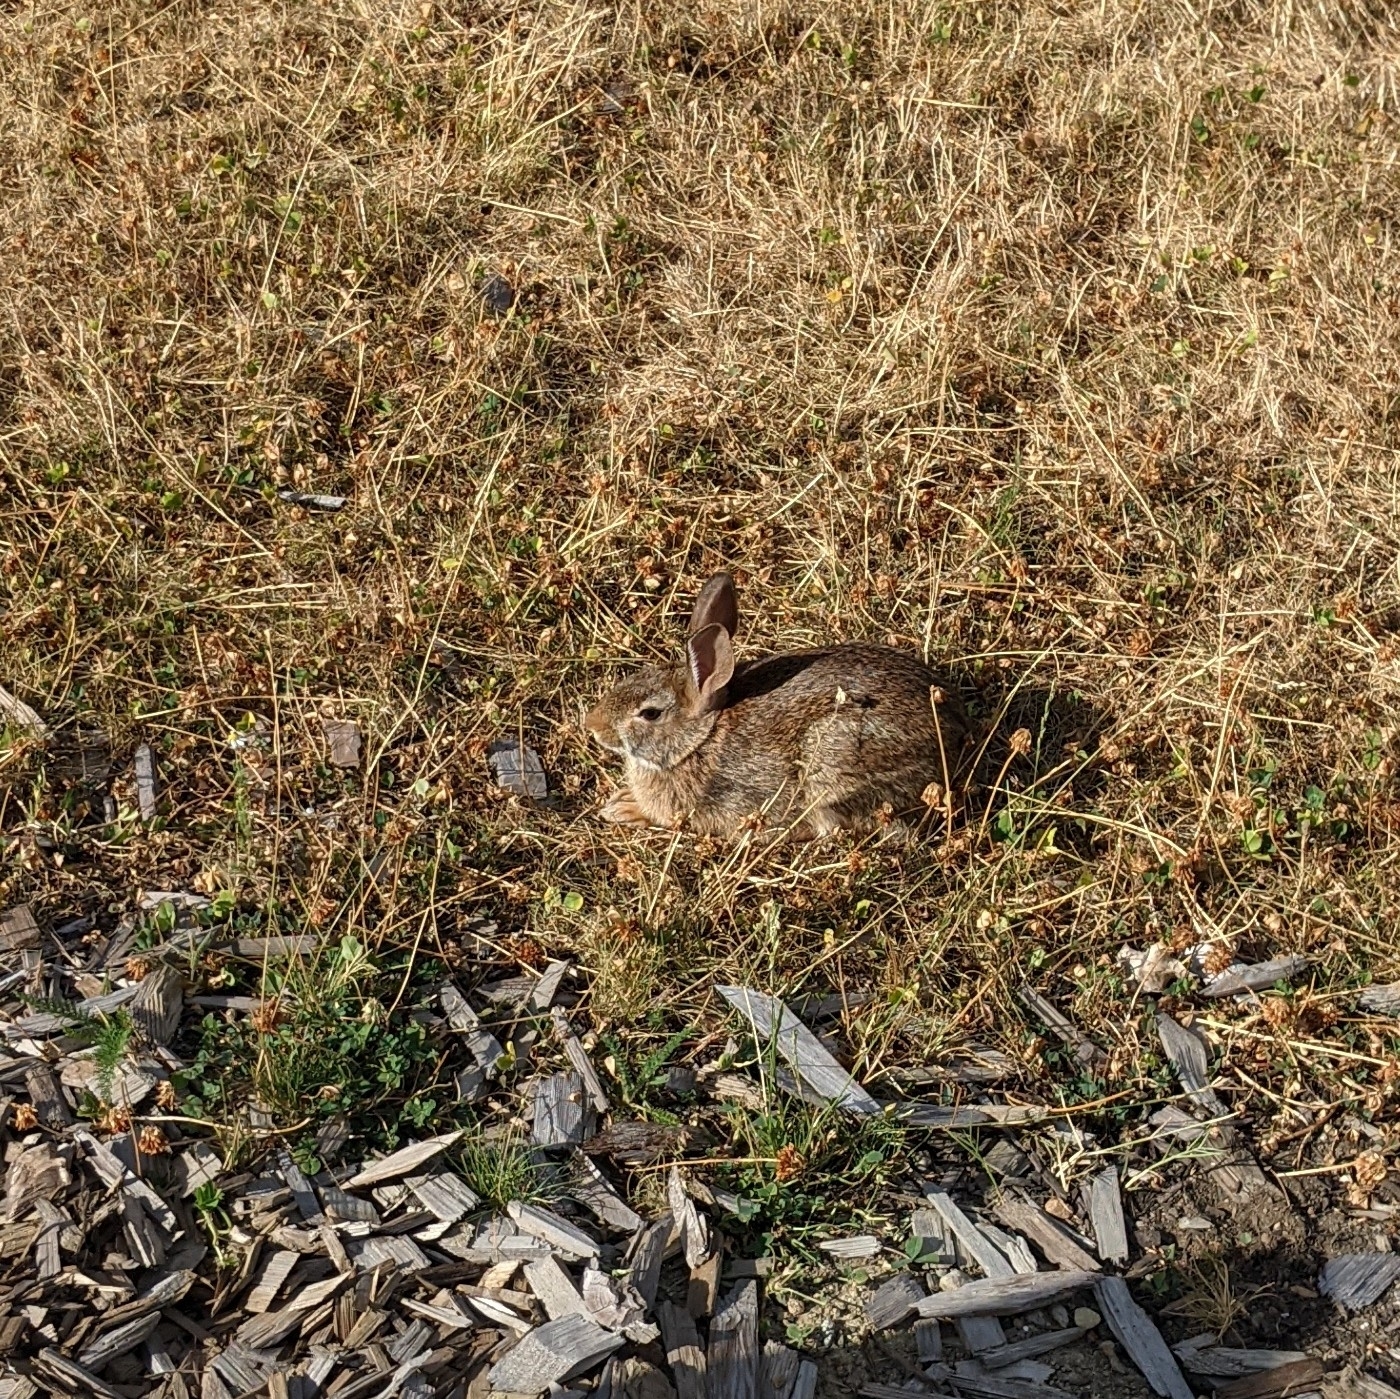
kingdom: Animalia
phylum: Chordata
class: Mammalia
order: Lagomorpha
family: Leporidae
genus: Sylvilagus
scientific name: Sylvilagus floridanus
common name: Eastern cottontail
